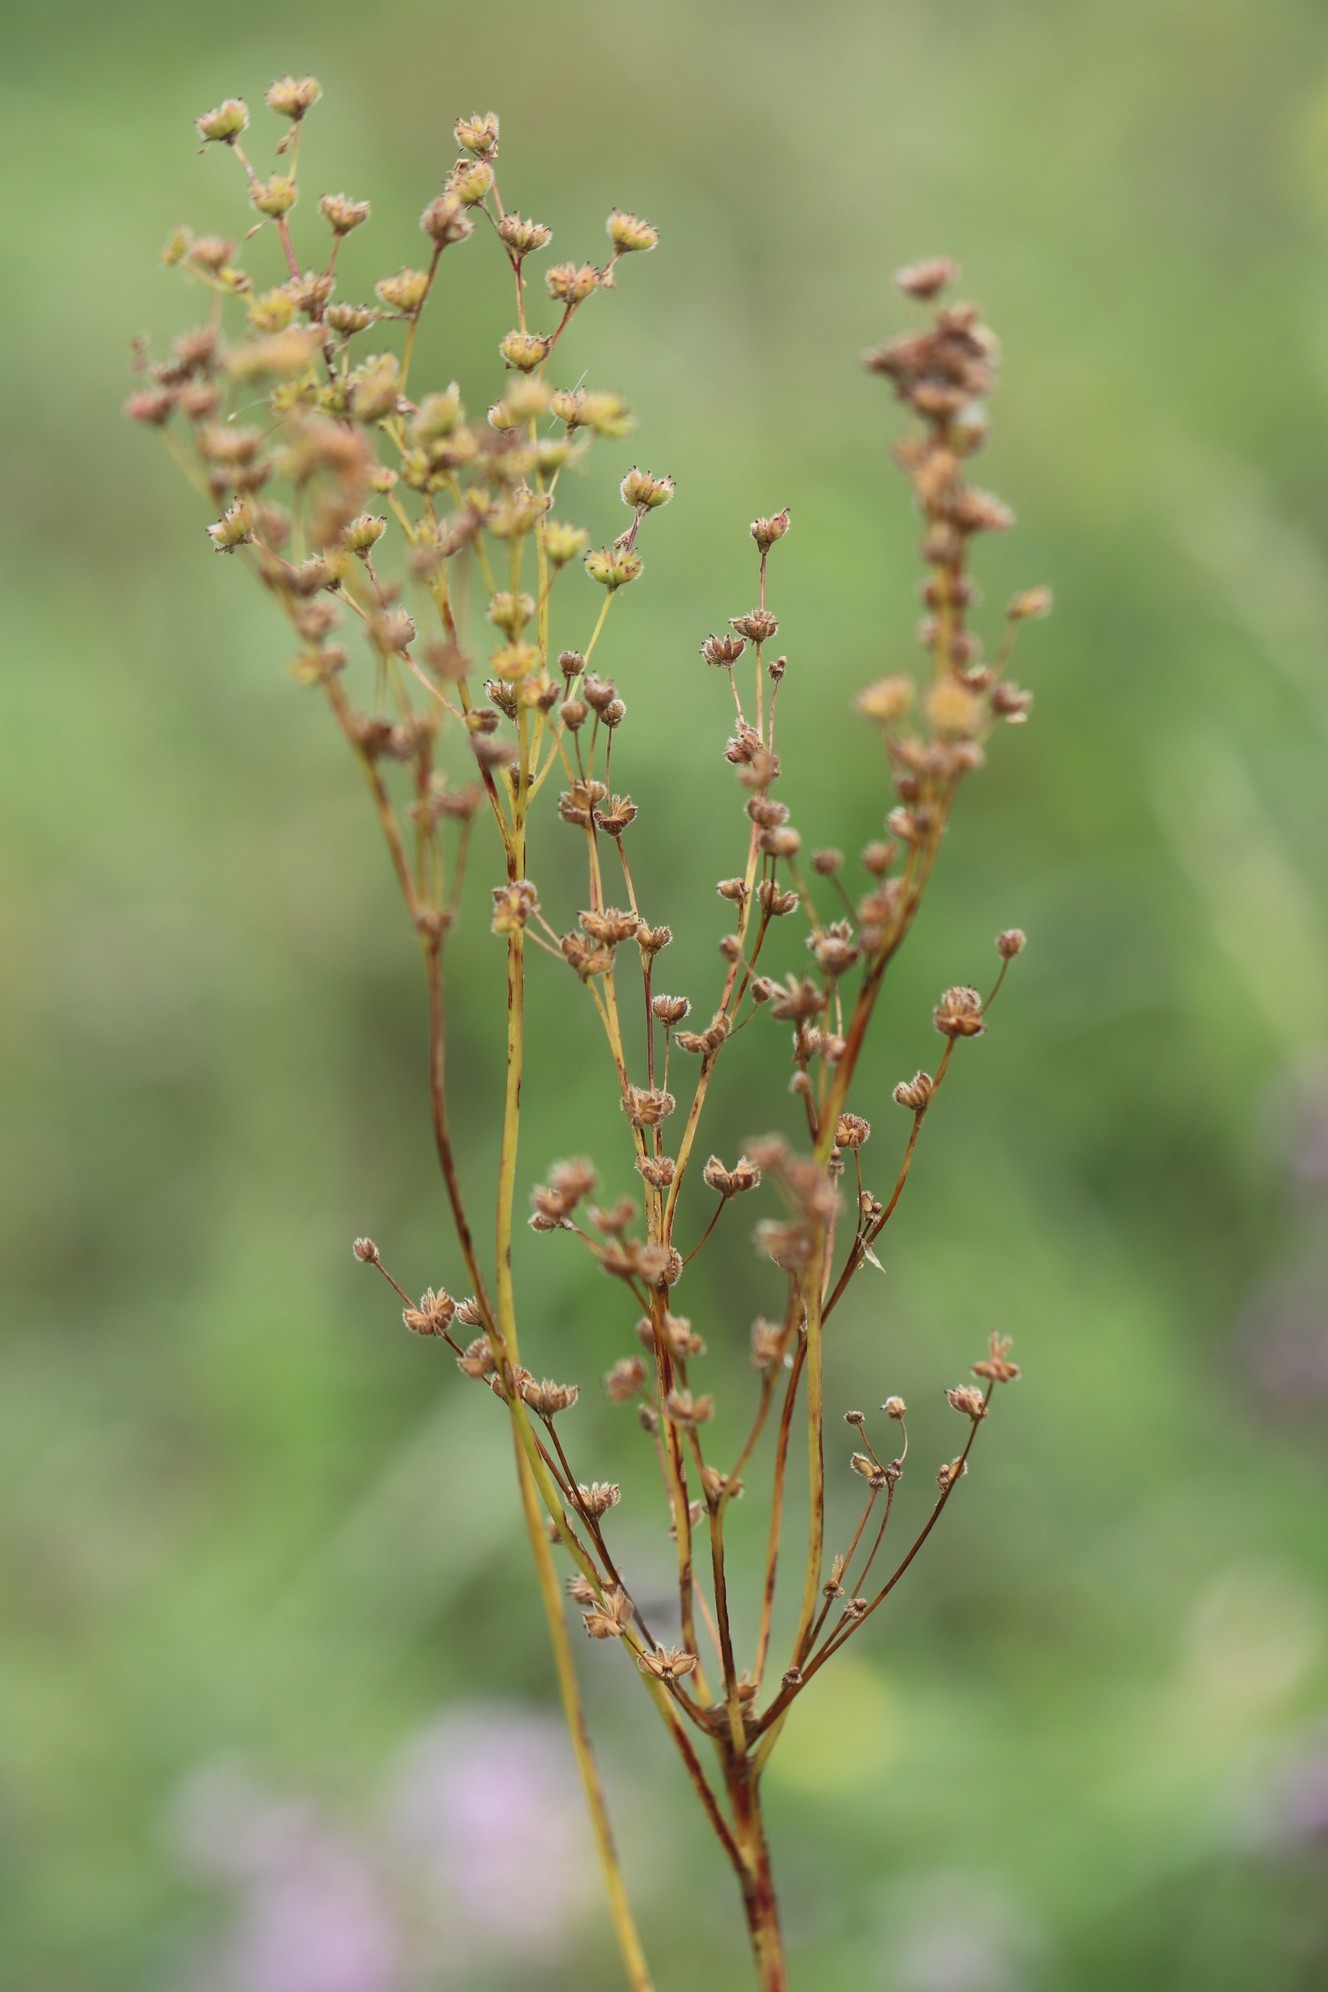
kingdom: Plantae
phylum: Tracheophyta
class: Magnoliopsida
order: Rosales
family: Rosaceae
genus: Filipendula
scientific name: Filipendula vulgaris
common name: Dropwort
